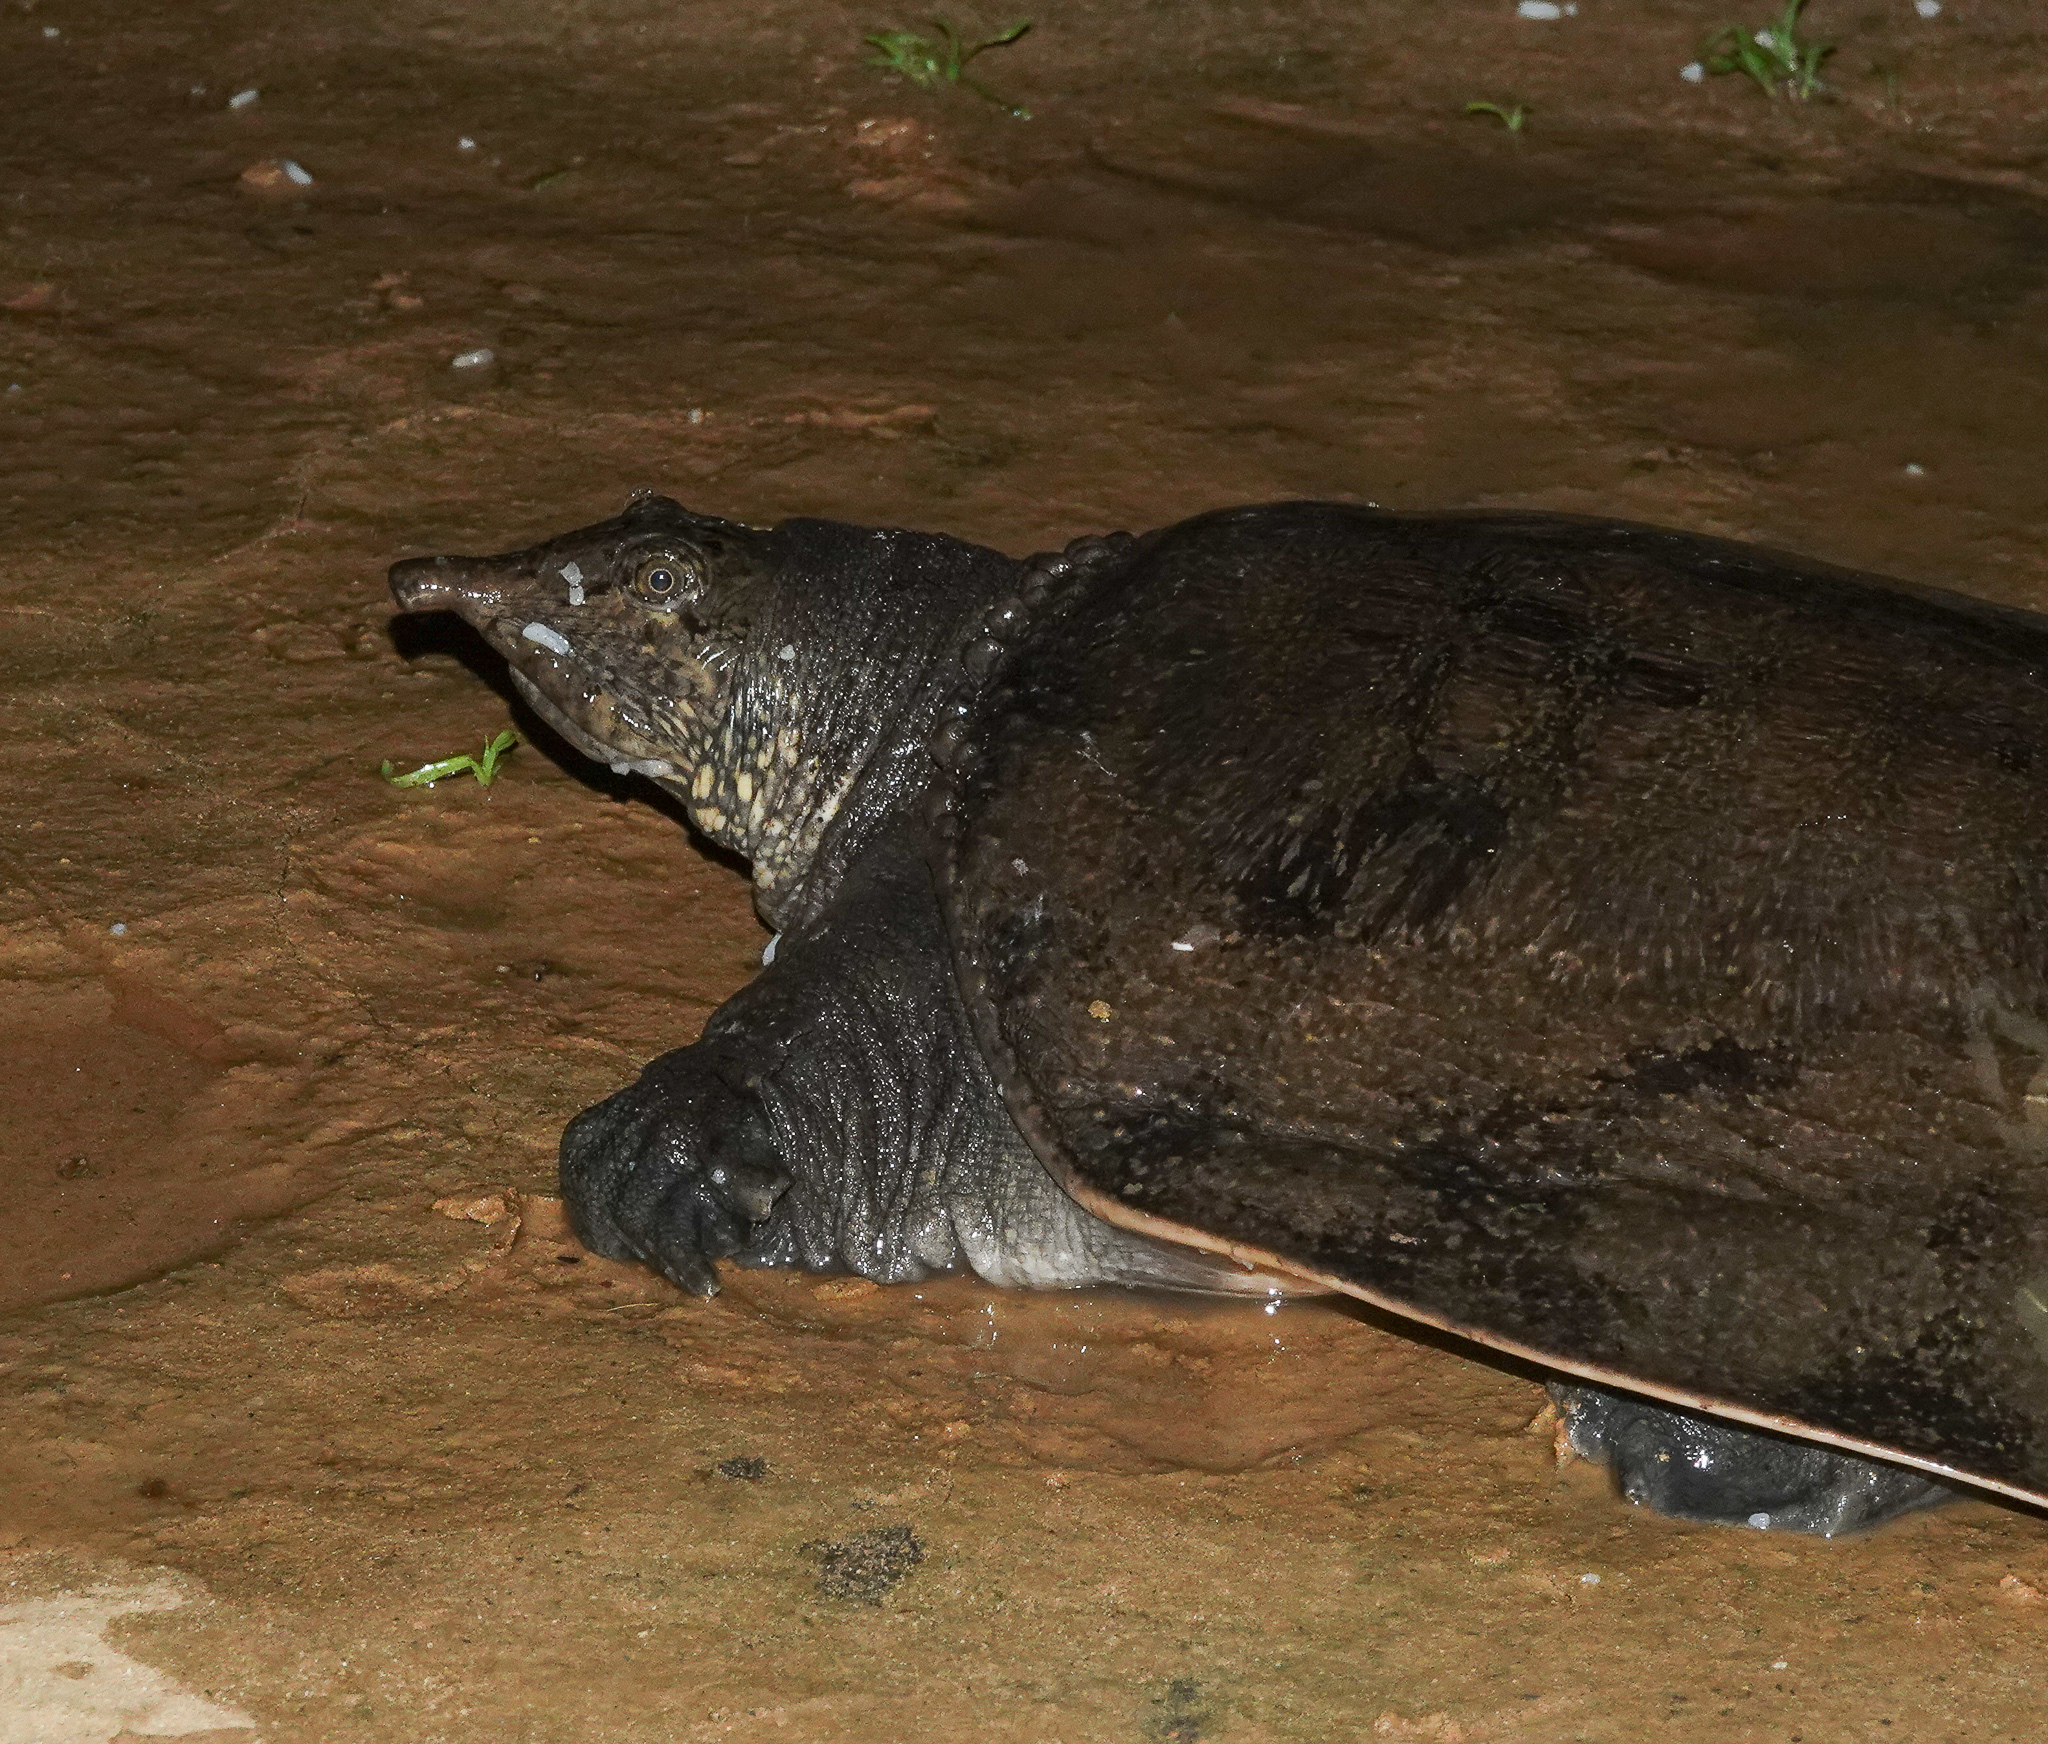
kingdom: Animalia
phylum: Chordata
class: Testudines
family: Trionychidae
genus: Amyda
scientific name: Amyda cartilaginea
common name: Asiatic softshell turtle
